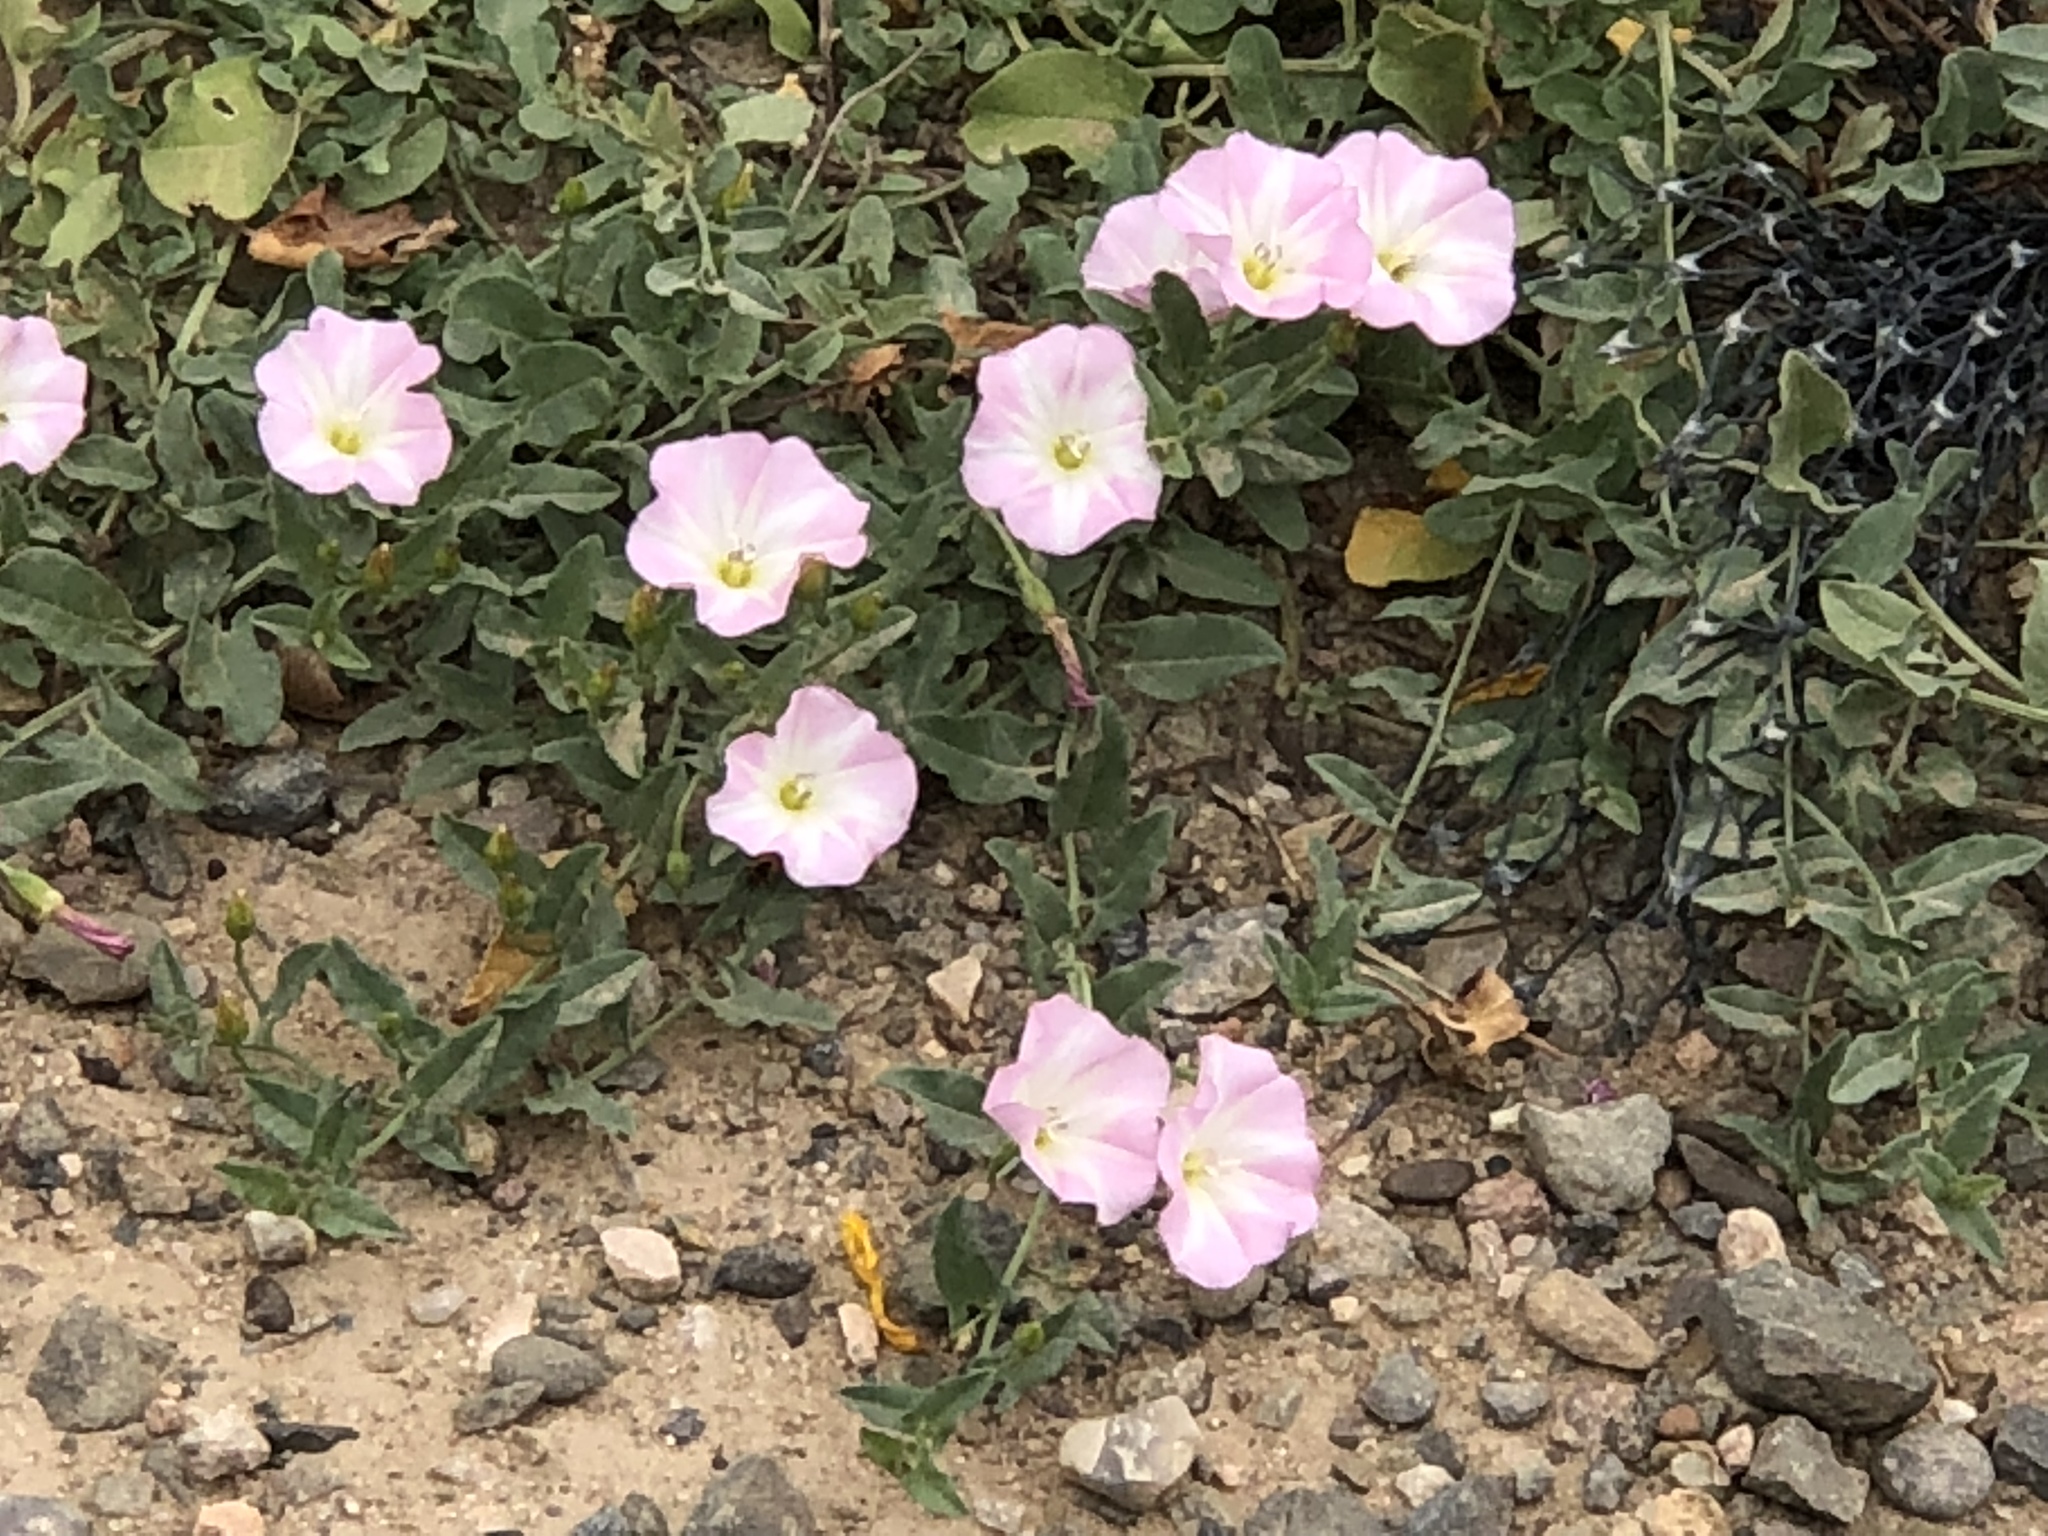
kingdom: Plantae
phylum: Tracheophyta
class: Magnoliopsida
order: Solanales
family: Convolvulaceae
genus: Convolvulus
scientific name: Convolvulus arvensis
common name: Field bindweed
